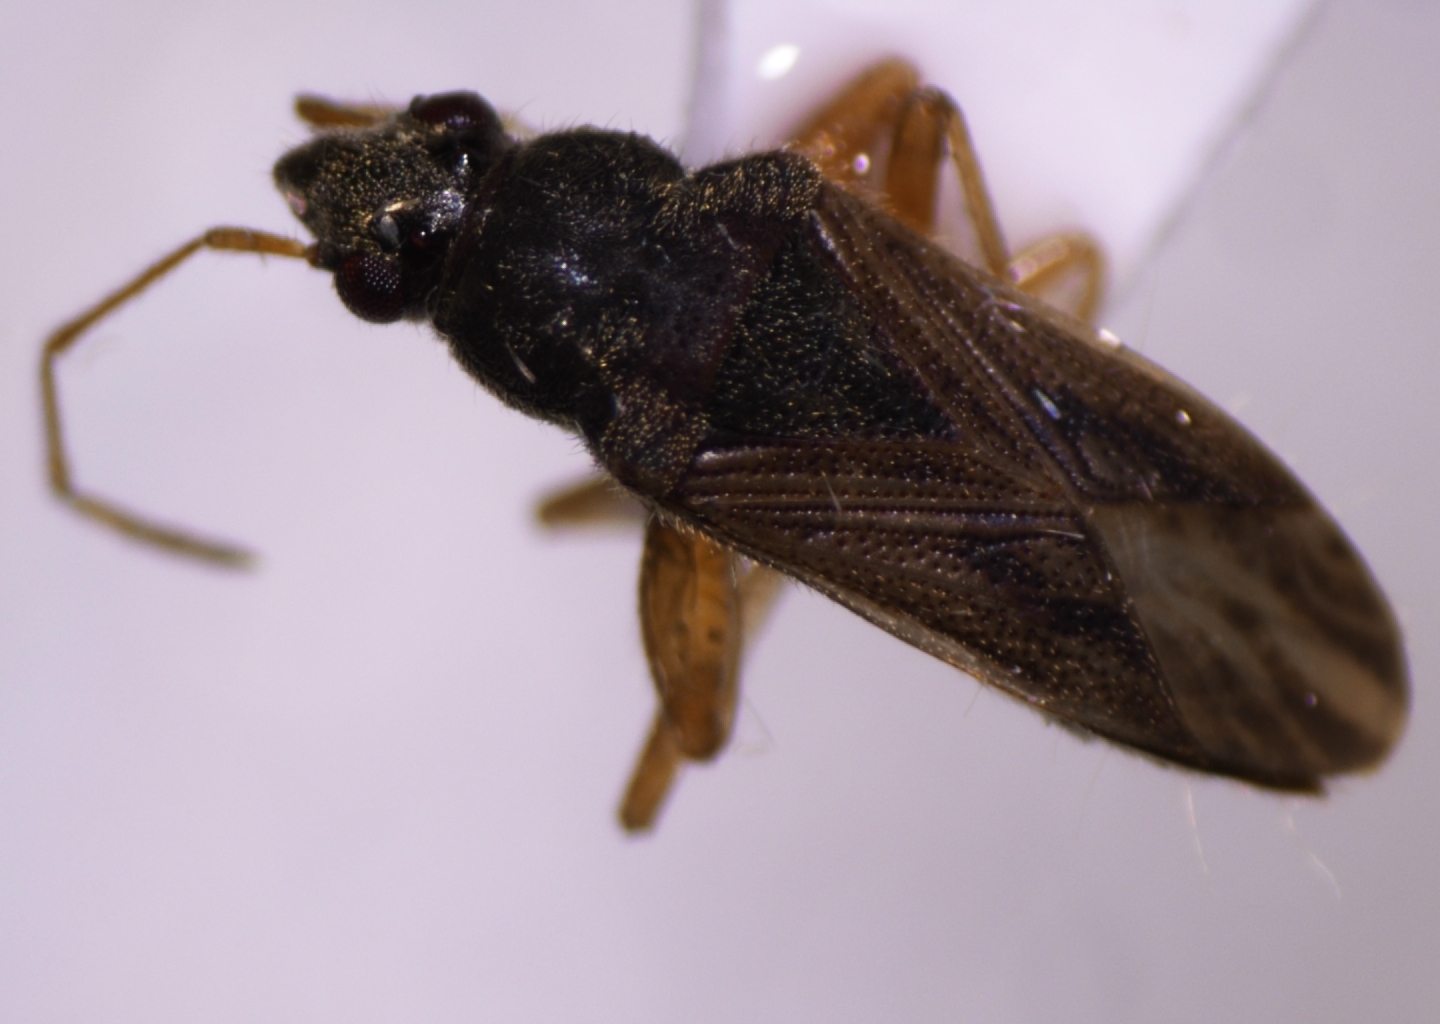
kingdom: Animalia
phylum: Arthropoda
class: Insecta
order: Hemiptera
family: Rhyparochromidae
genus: Remaudiereana
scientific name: Remaudiereana puberulus
